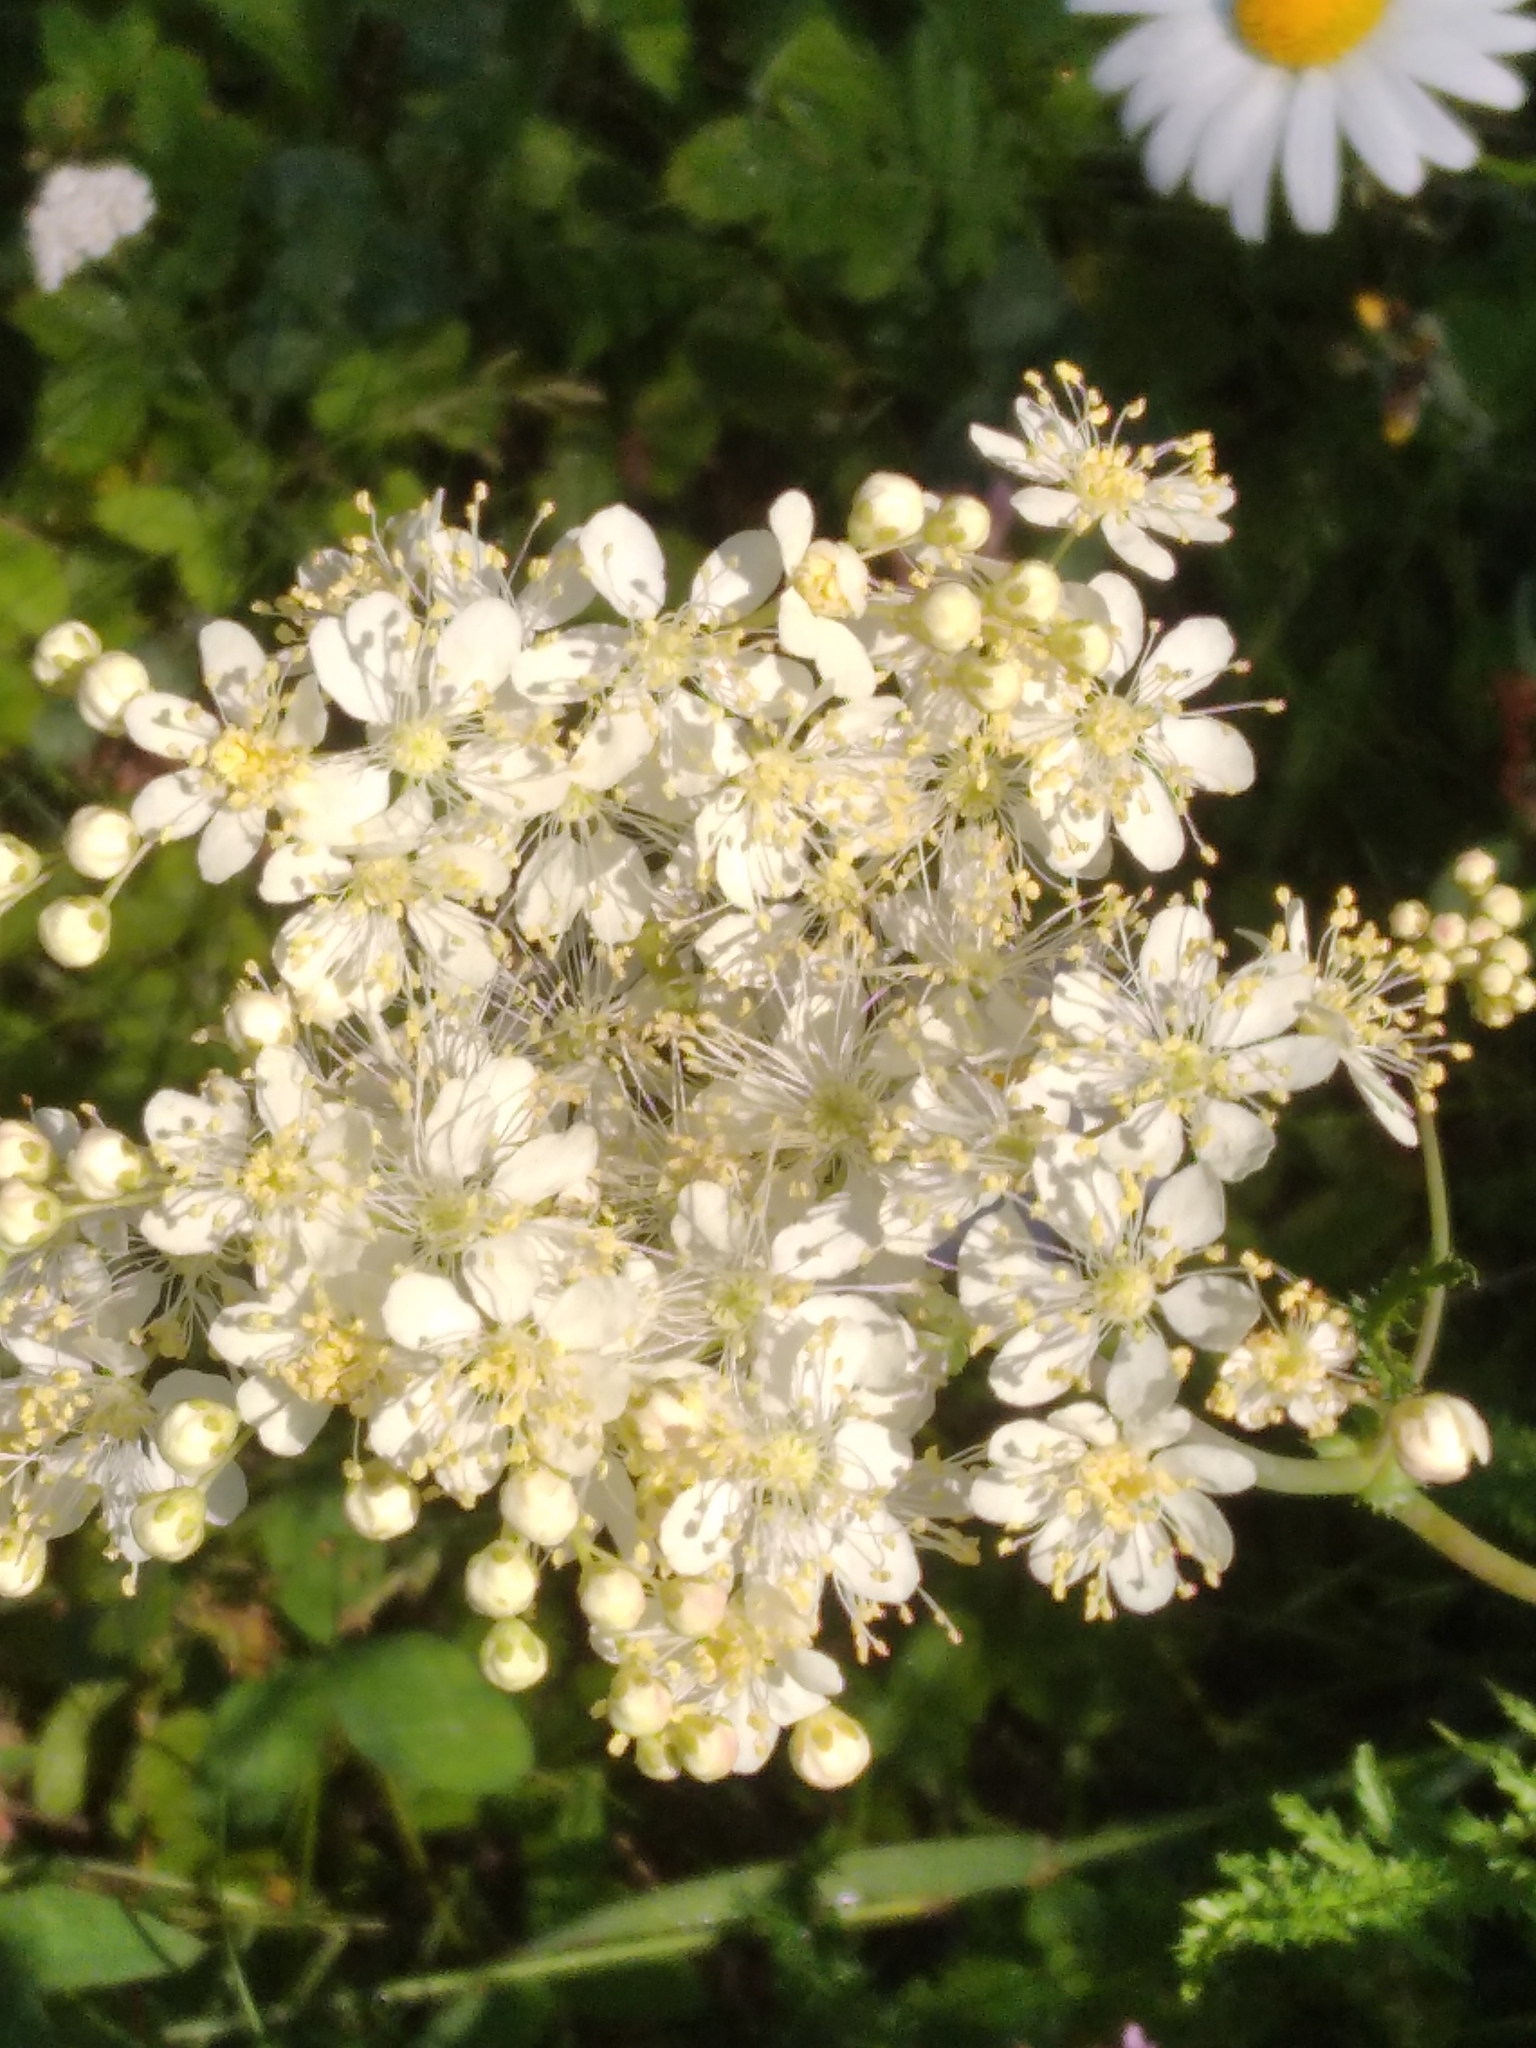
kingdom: Plantae
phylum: Tracheophyta
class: Magnoliopsida
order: Rosales
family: Rosaceae
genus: Filipendula
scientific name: Filipendula vulgaris
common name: Dropwort
